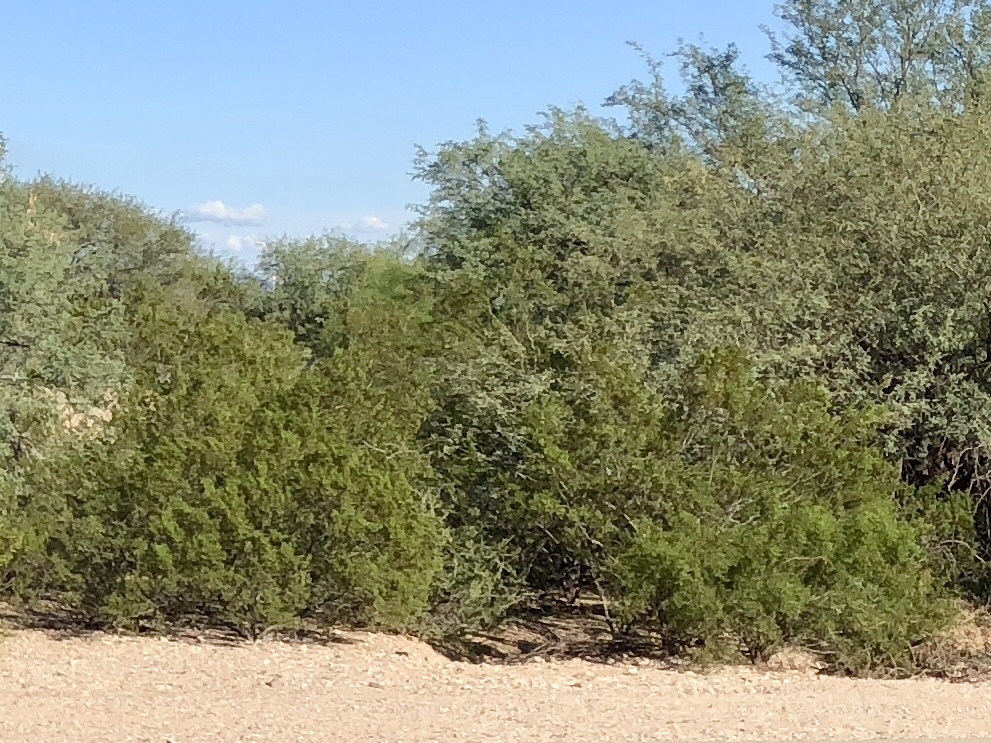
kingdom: Plantae
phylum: Tracheophyta
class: Magnoliopsida
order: Zygophyllales
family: Zygophyllaceae
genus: Larrea
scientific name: Larrea tridentata
